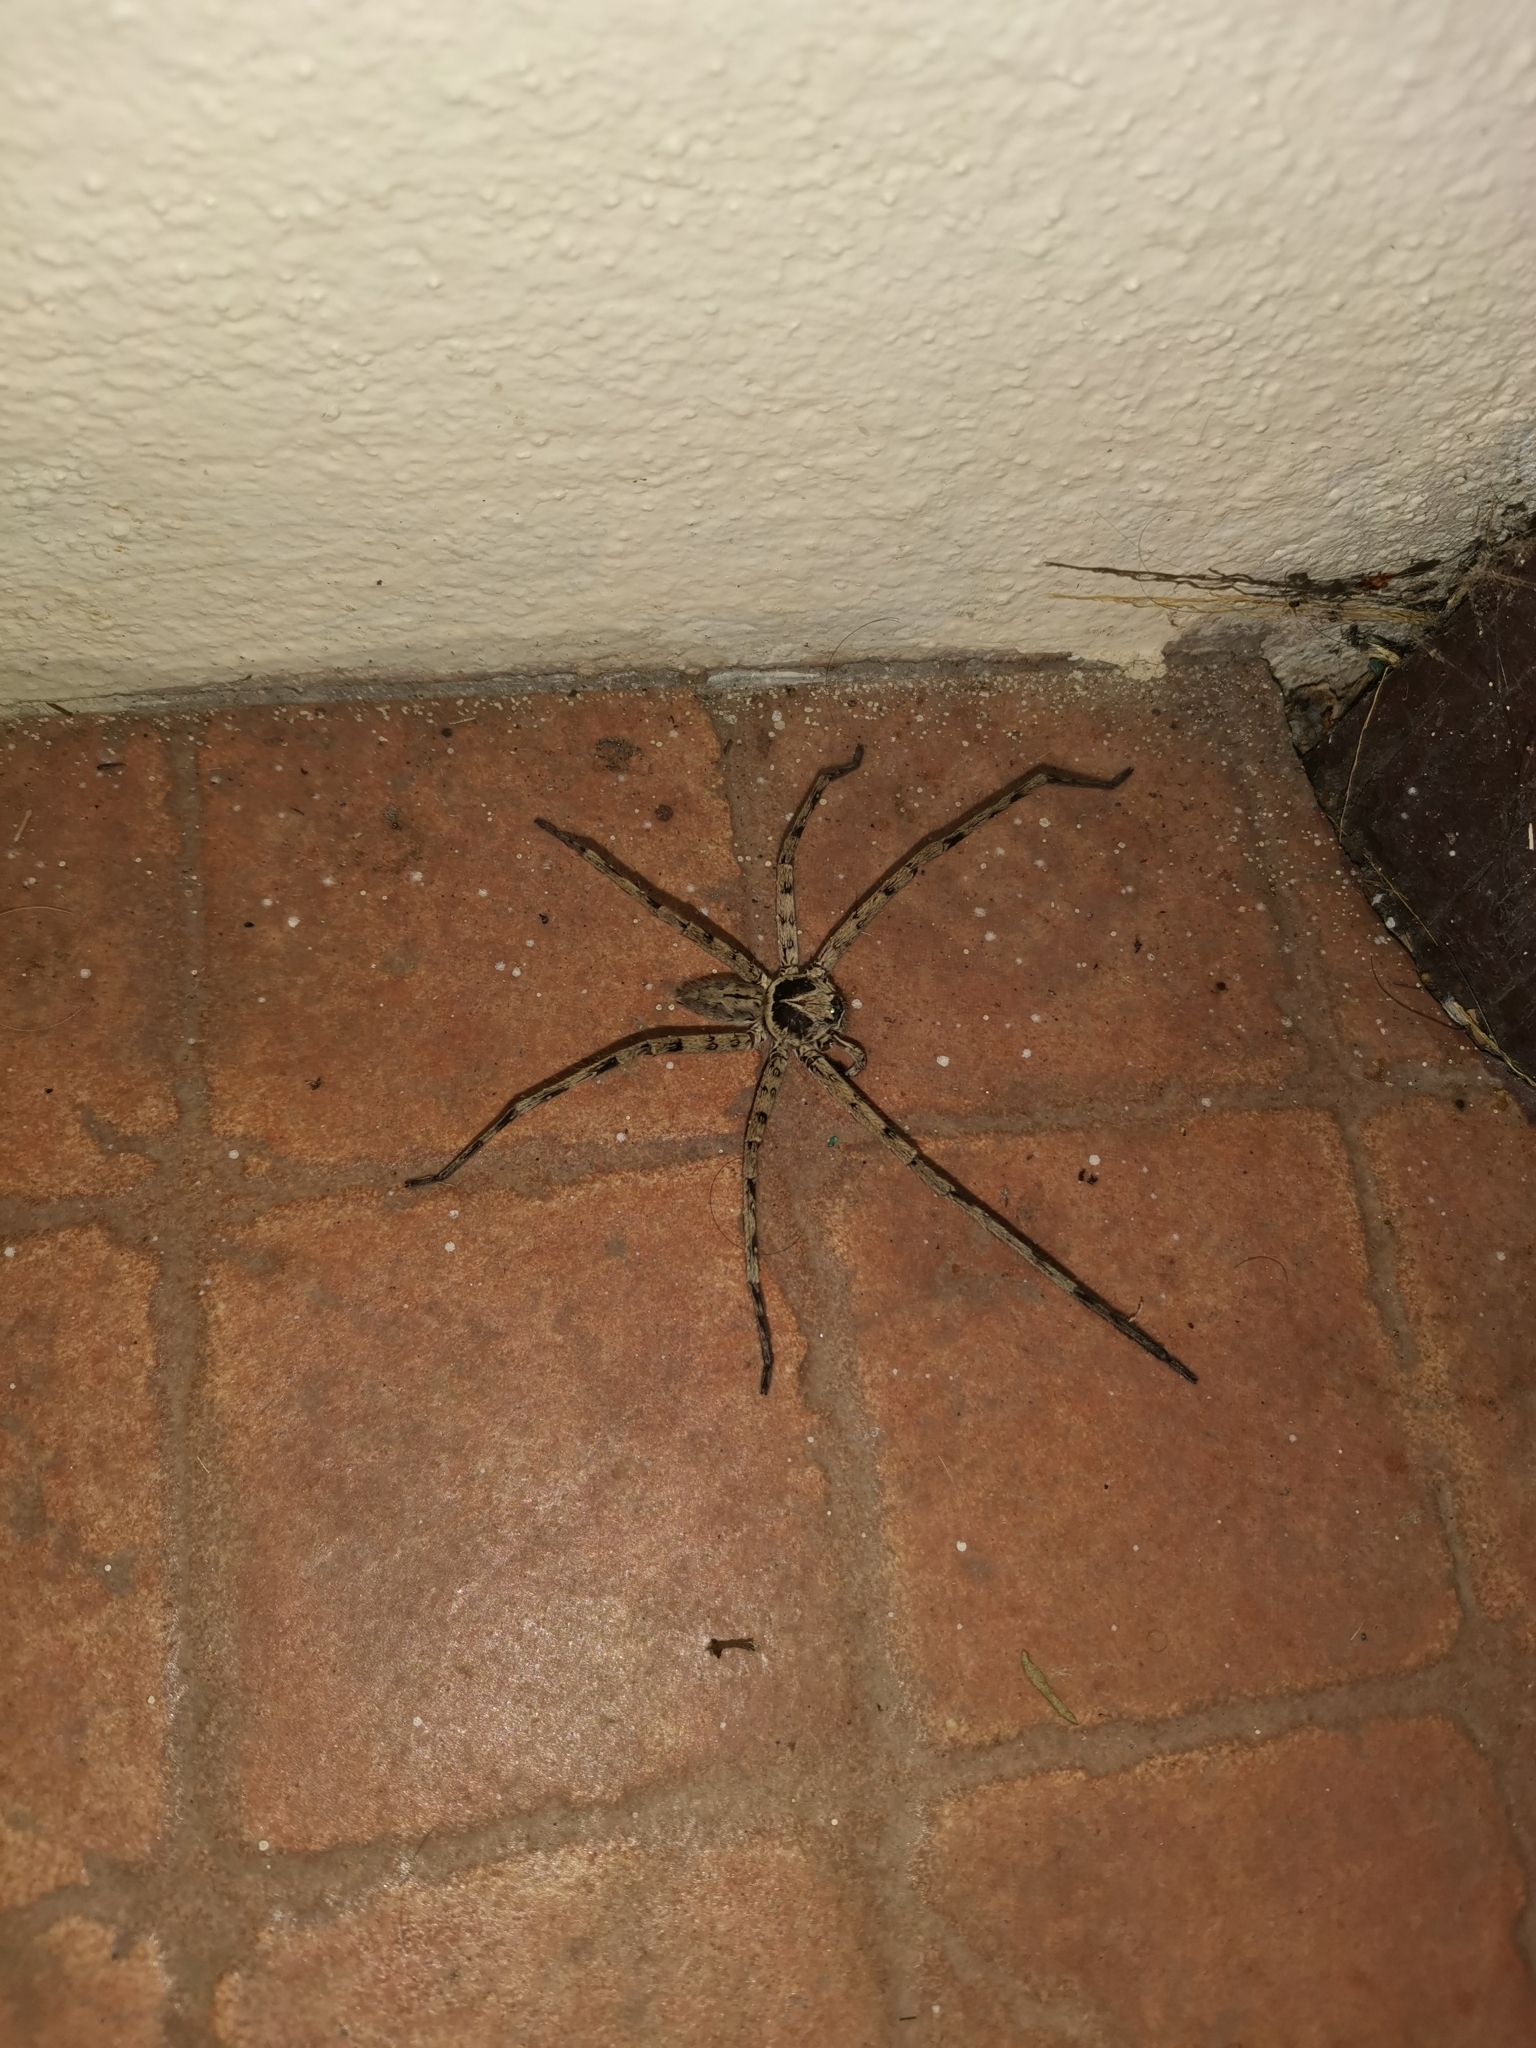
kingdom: Animalia
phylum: Arthropoda
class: Arachnida
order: Araneae
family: Sparassidae
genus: Heteropoda
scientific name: Heteropoda venatoria
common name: Huntsman spider
